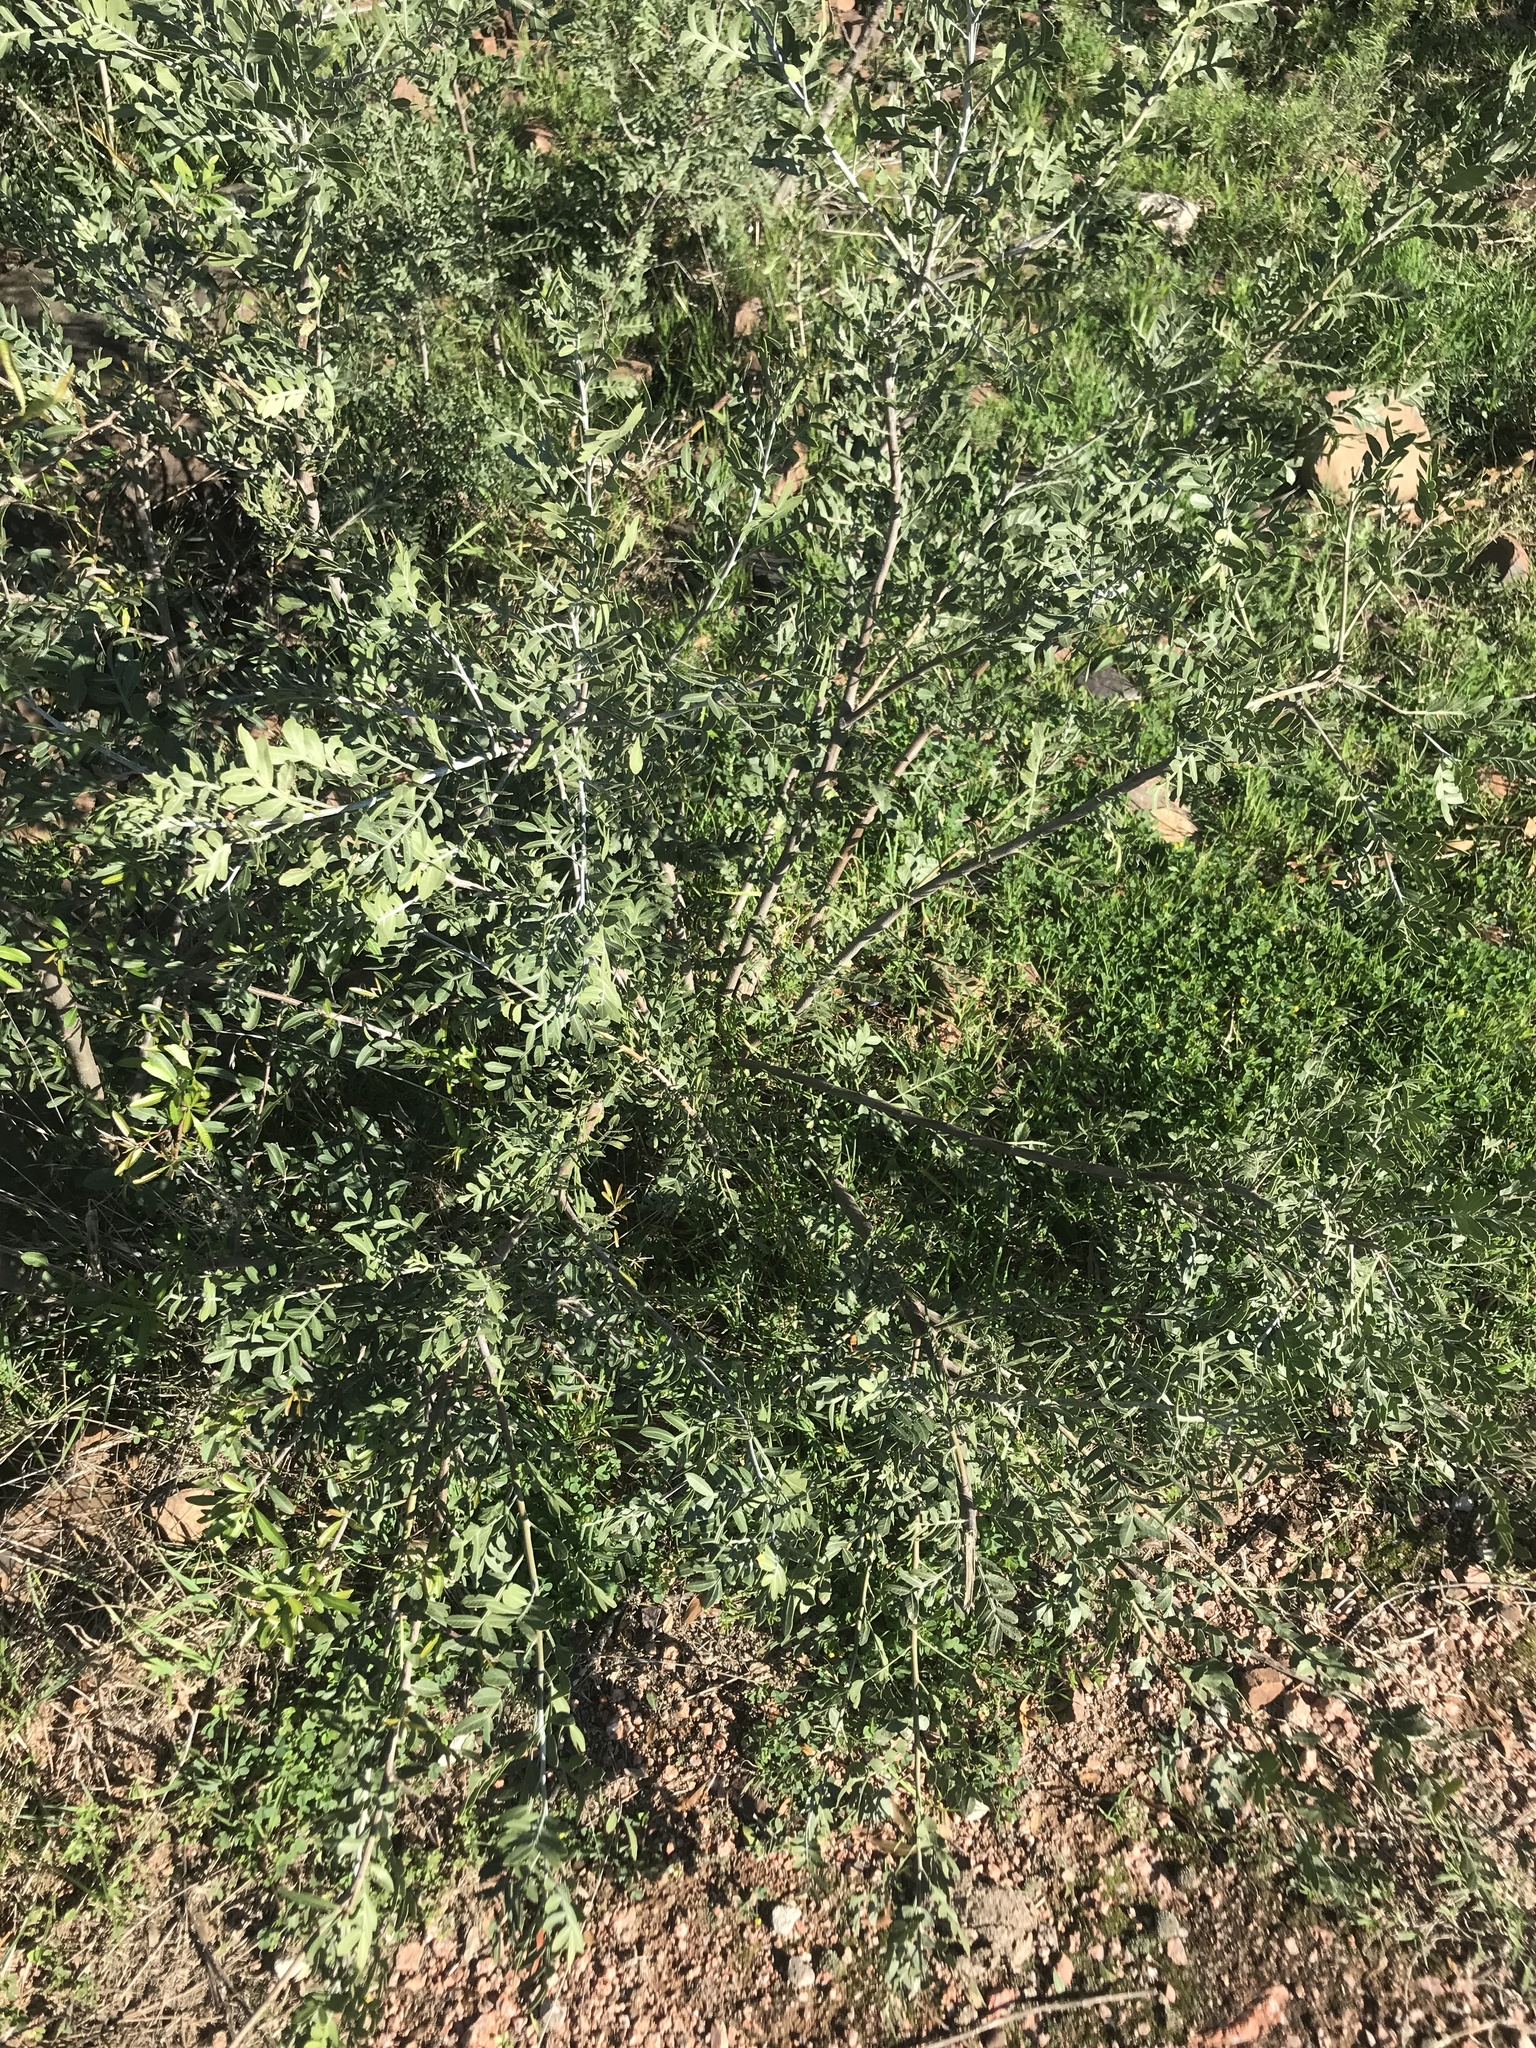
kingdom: Plantae
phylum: Tracheophyta
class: Magnoliopsida
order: Sapindales
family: Anacardiaceae
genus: Schinus
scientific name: Schinus lentiscifolia
